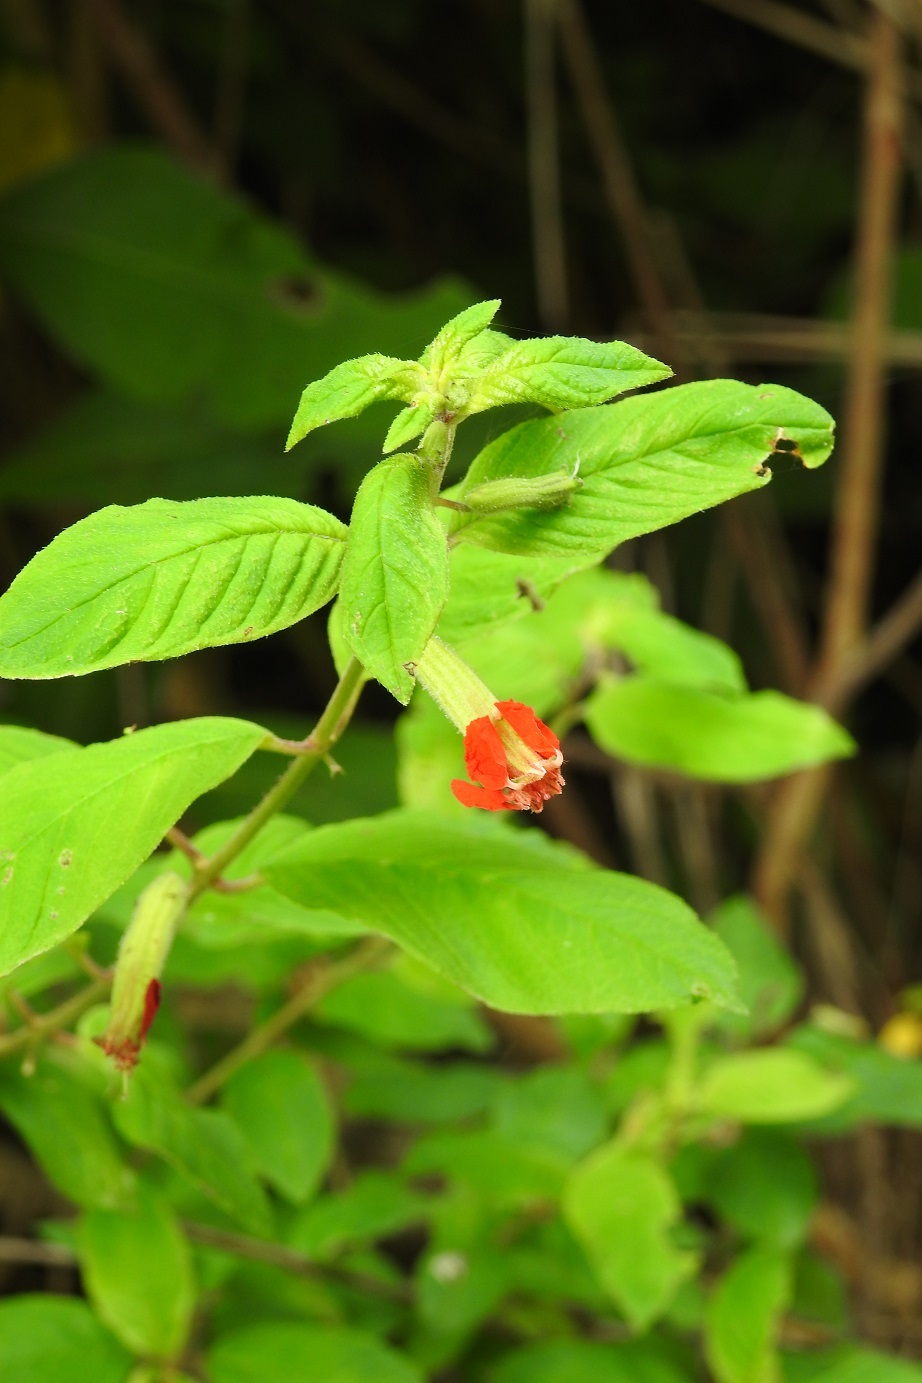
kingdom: Plantae
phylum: Tracheophyta
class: Magnoliopsida
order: Myrtales
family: Lythraceae
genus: Cuphea
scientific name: Cuphea nudicostata
